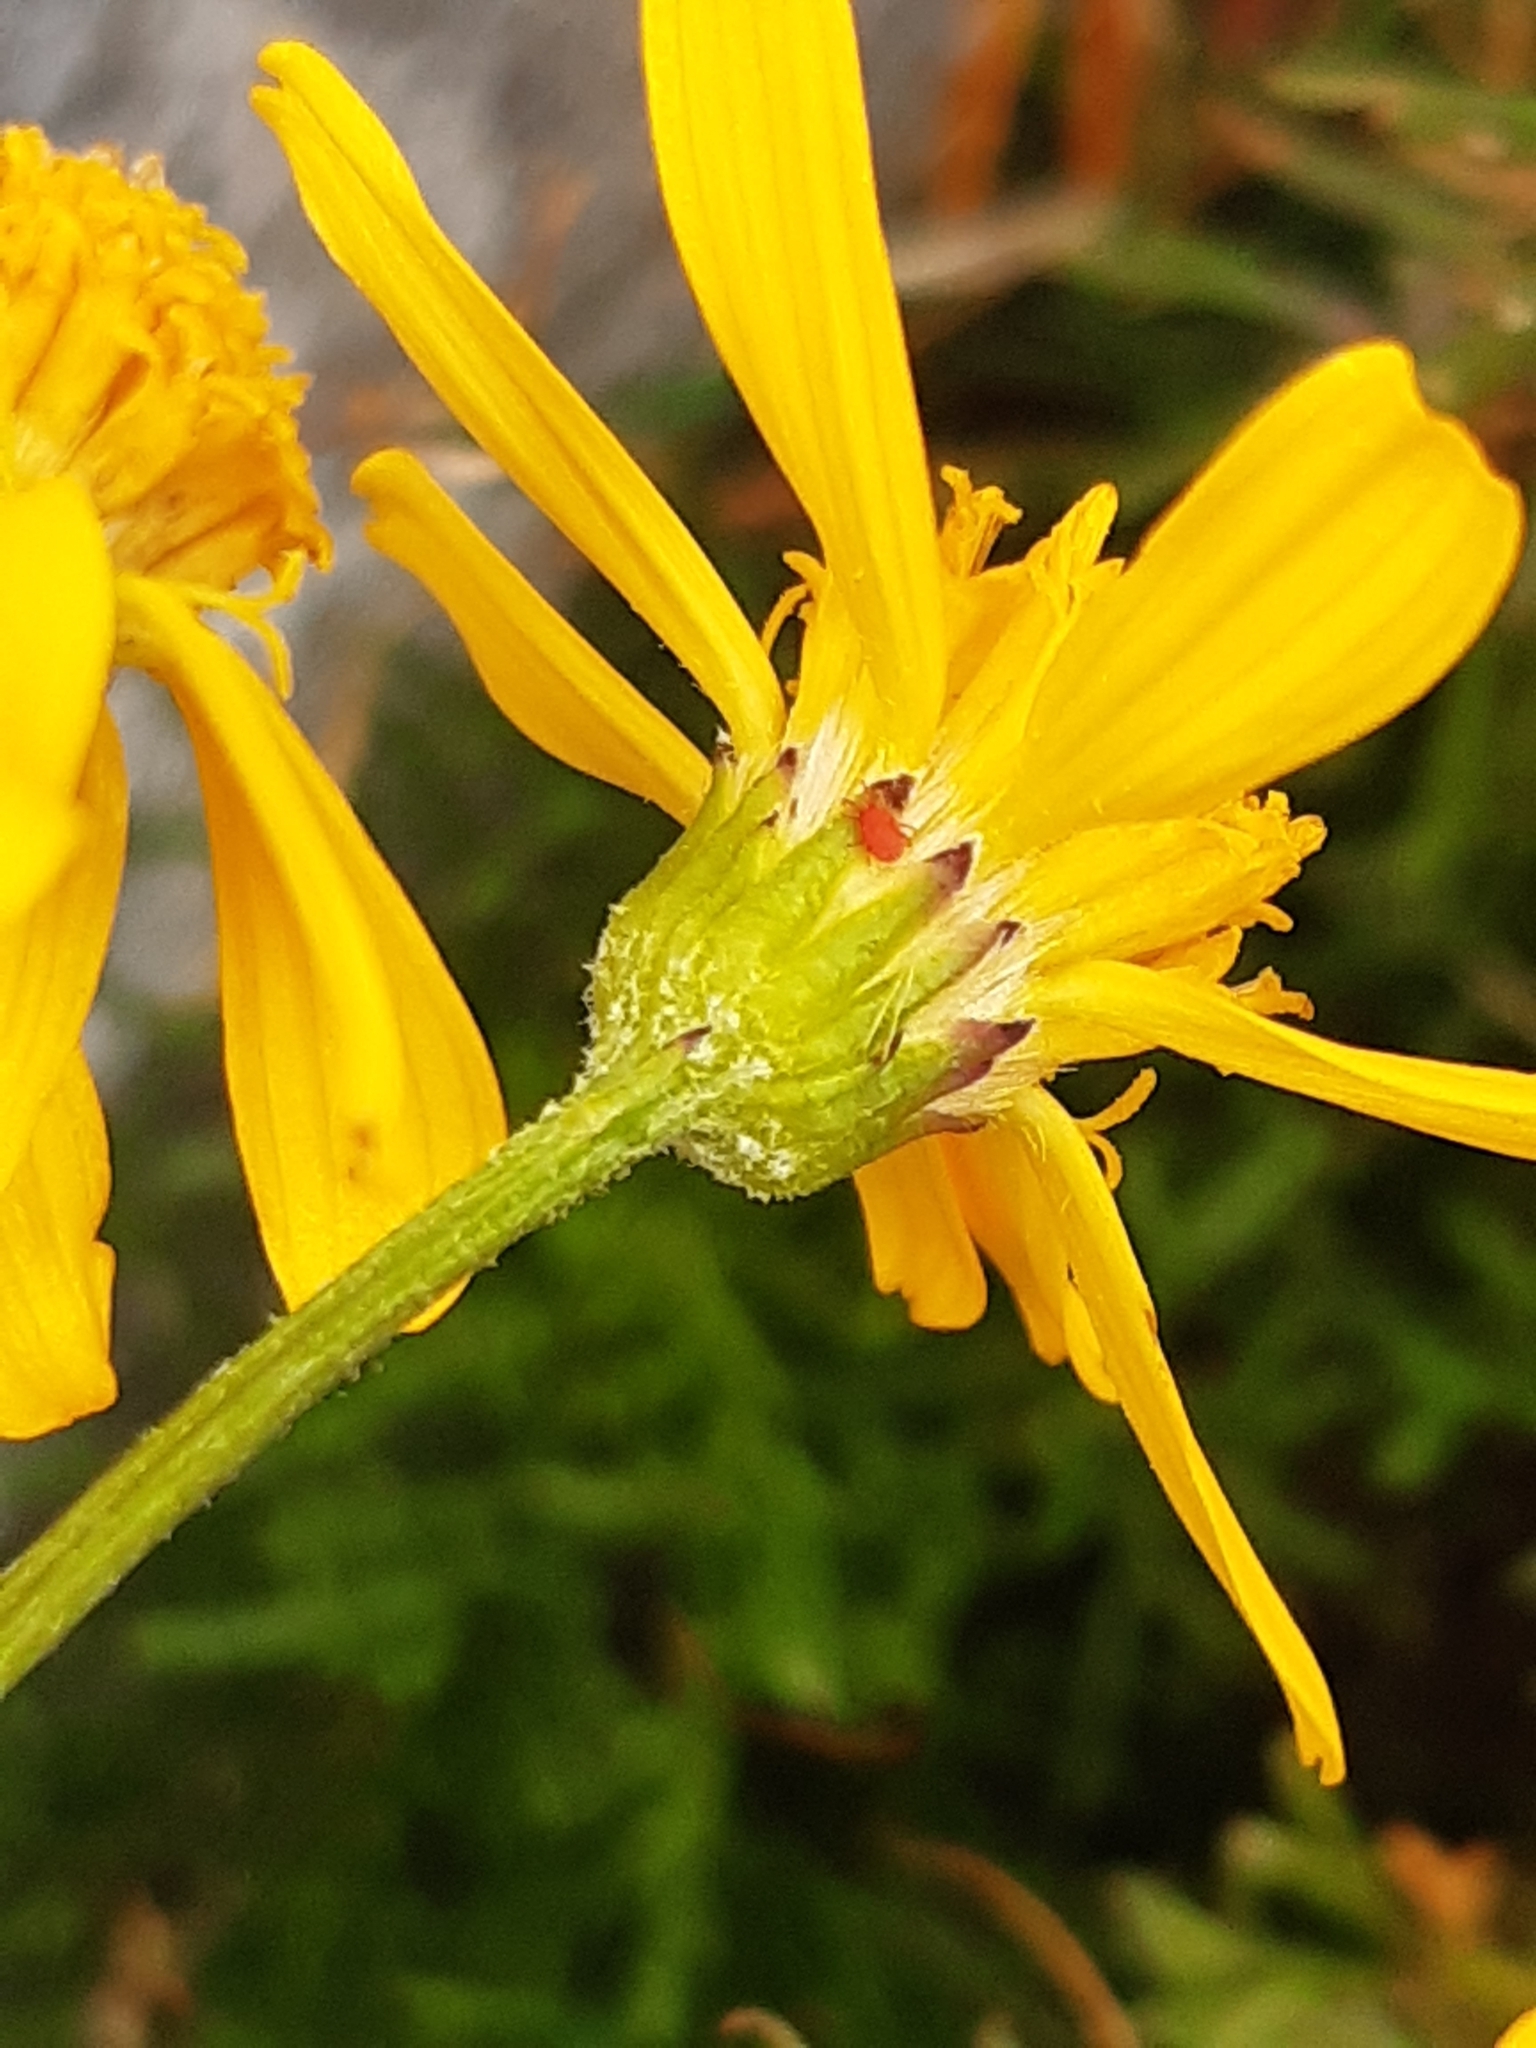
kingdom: Plantae
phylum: Tracheophyta
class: Magnoliopsida
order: Asterales
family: Asteraceae
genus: Jacobaea
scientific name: Jacobaea abrotanifolia
